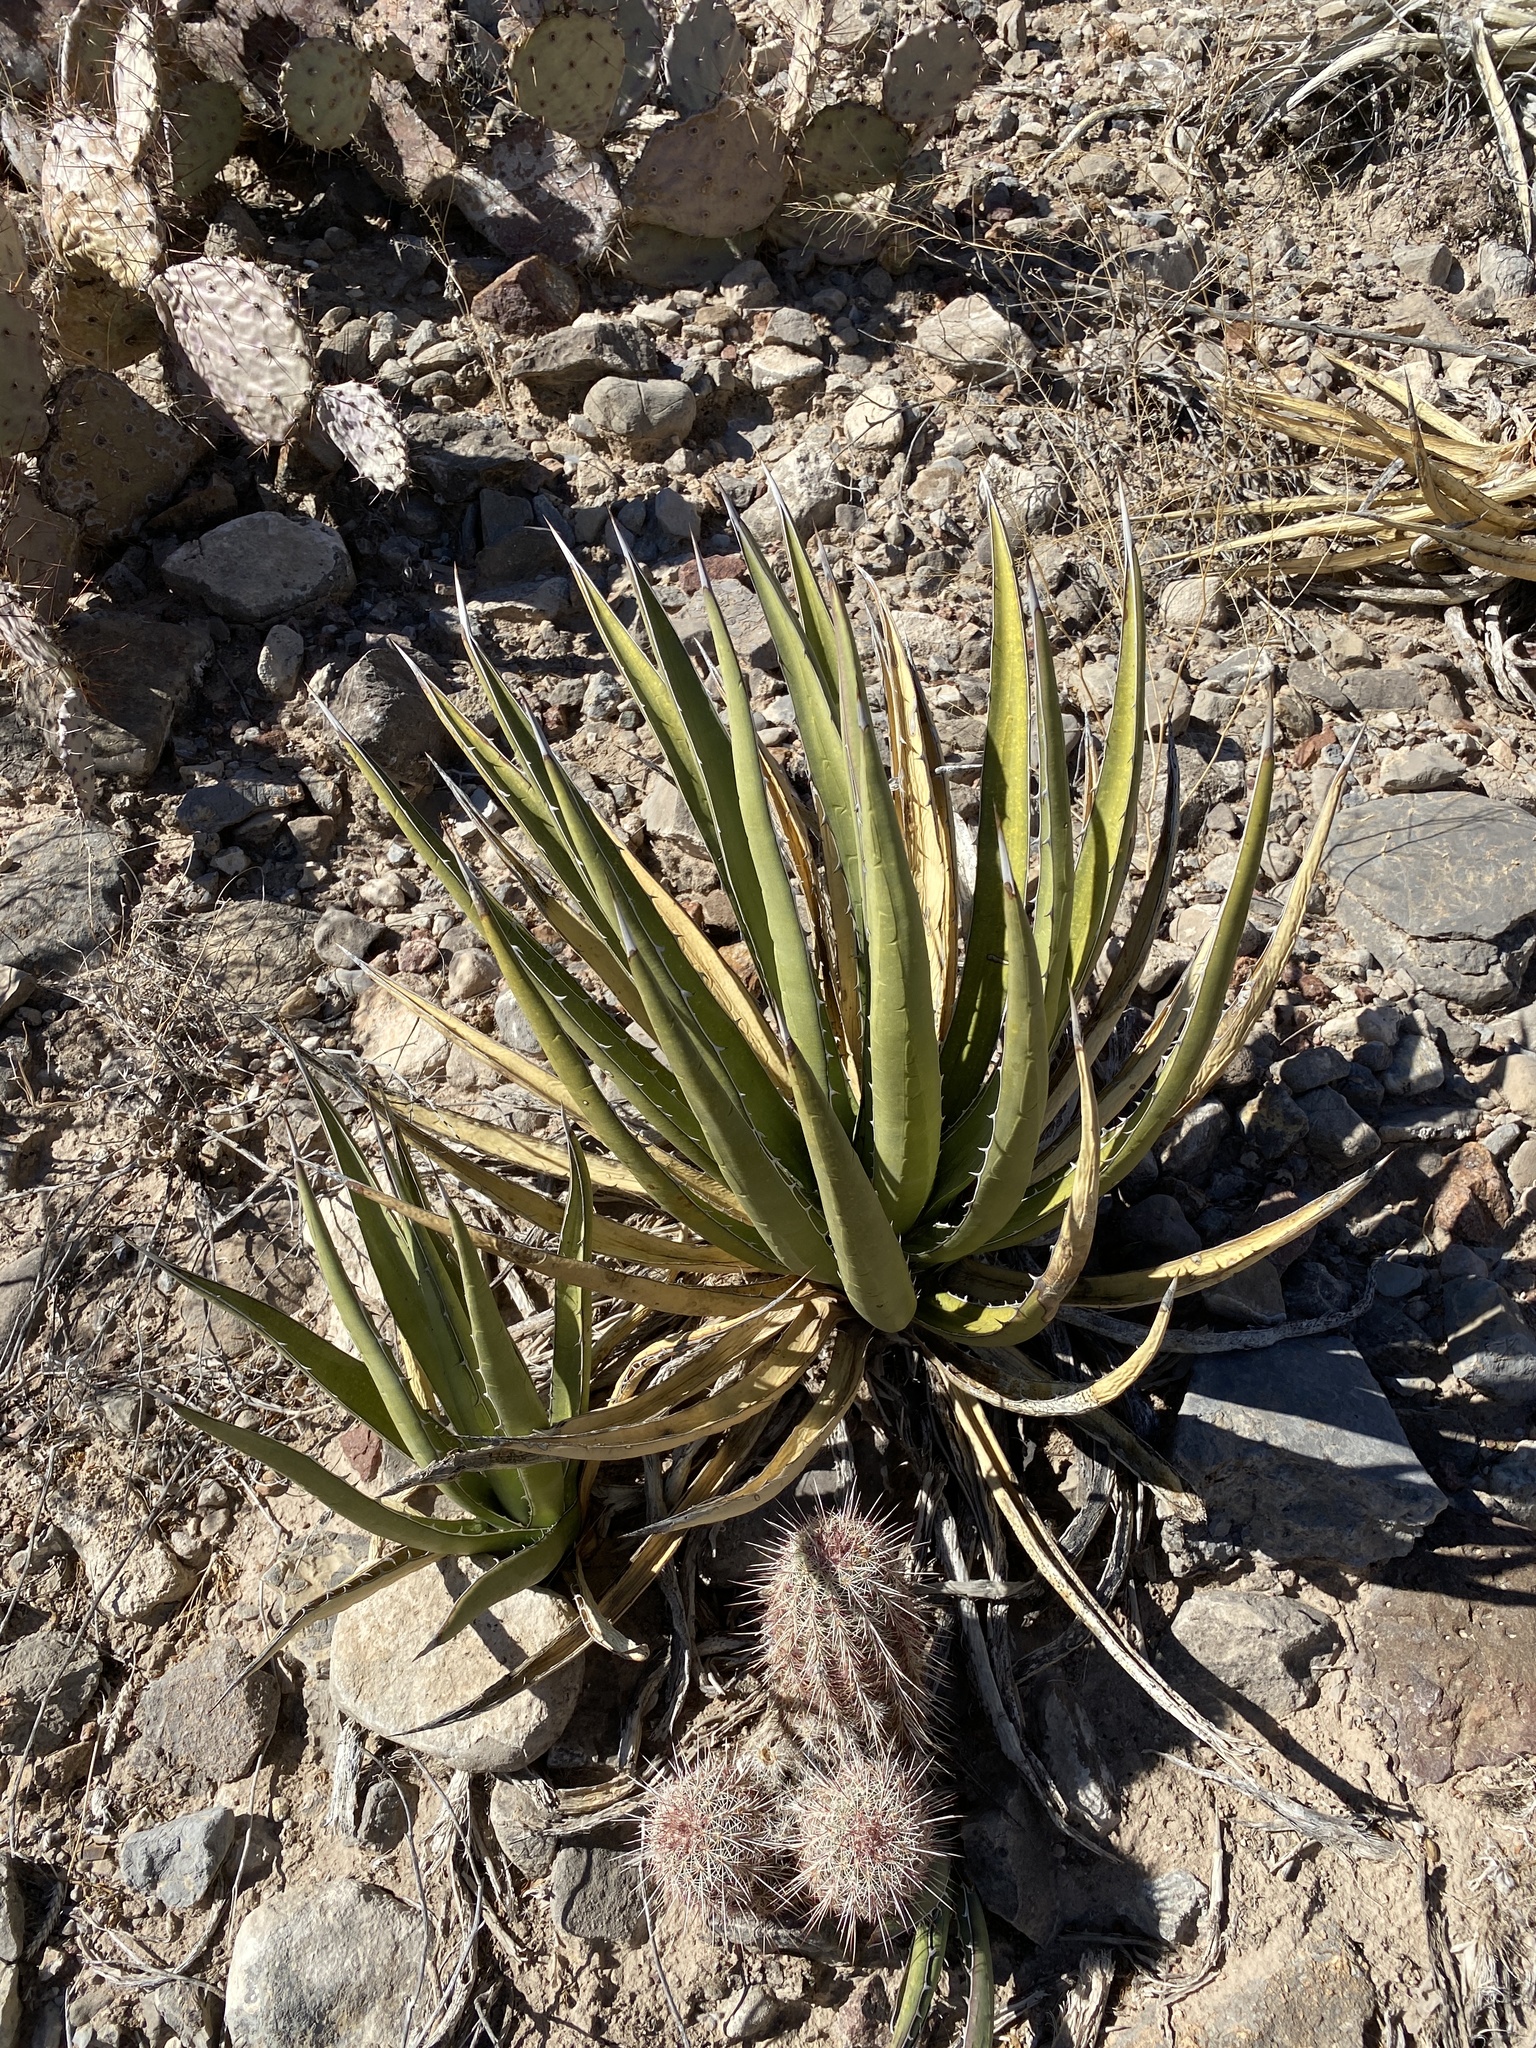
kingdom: Plantae
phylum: Tracheophyta
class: Liliopsida
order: Asparagales
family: Asparagaceae
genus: Agave
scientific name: Agave lechuguilla
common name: Lecheguilla agave
